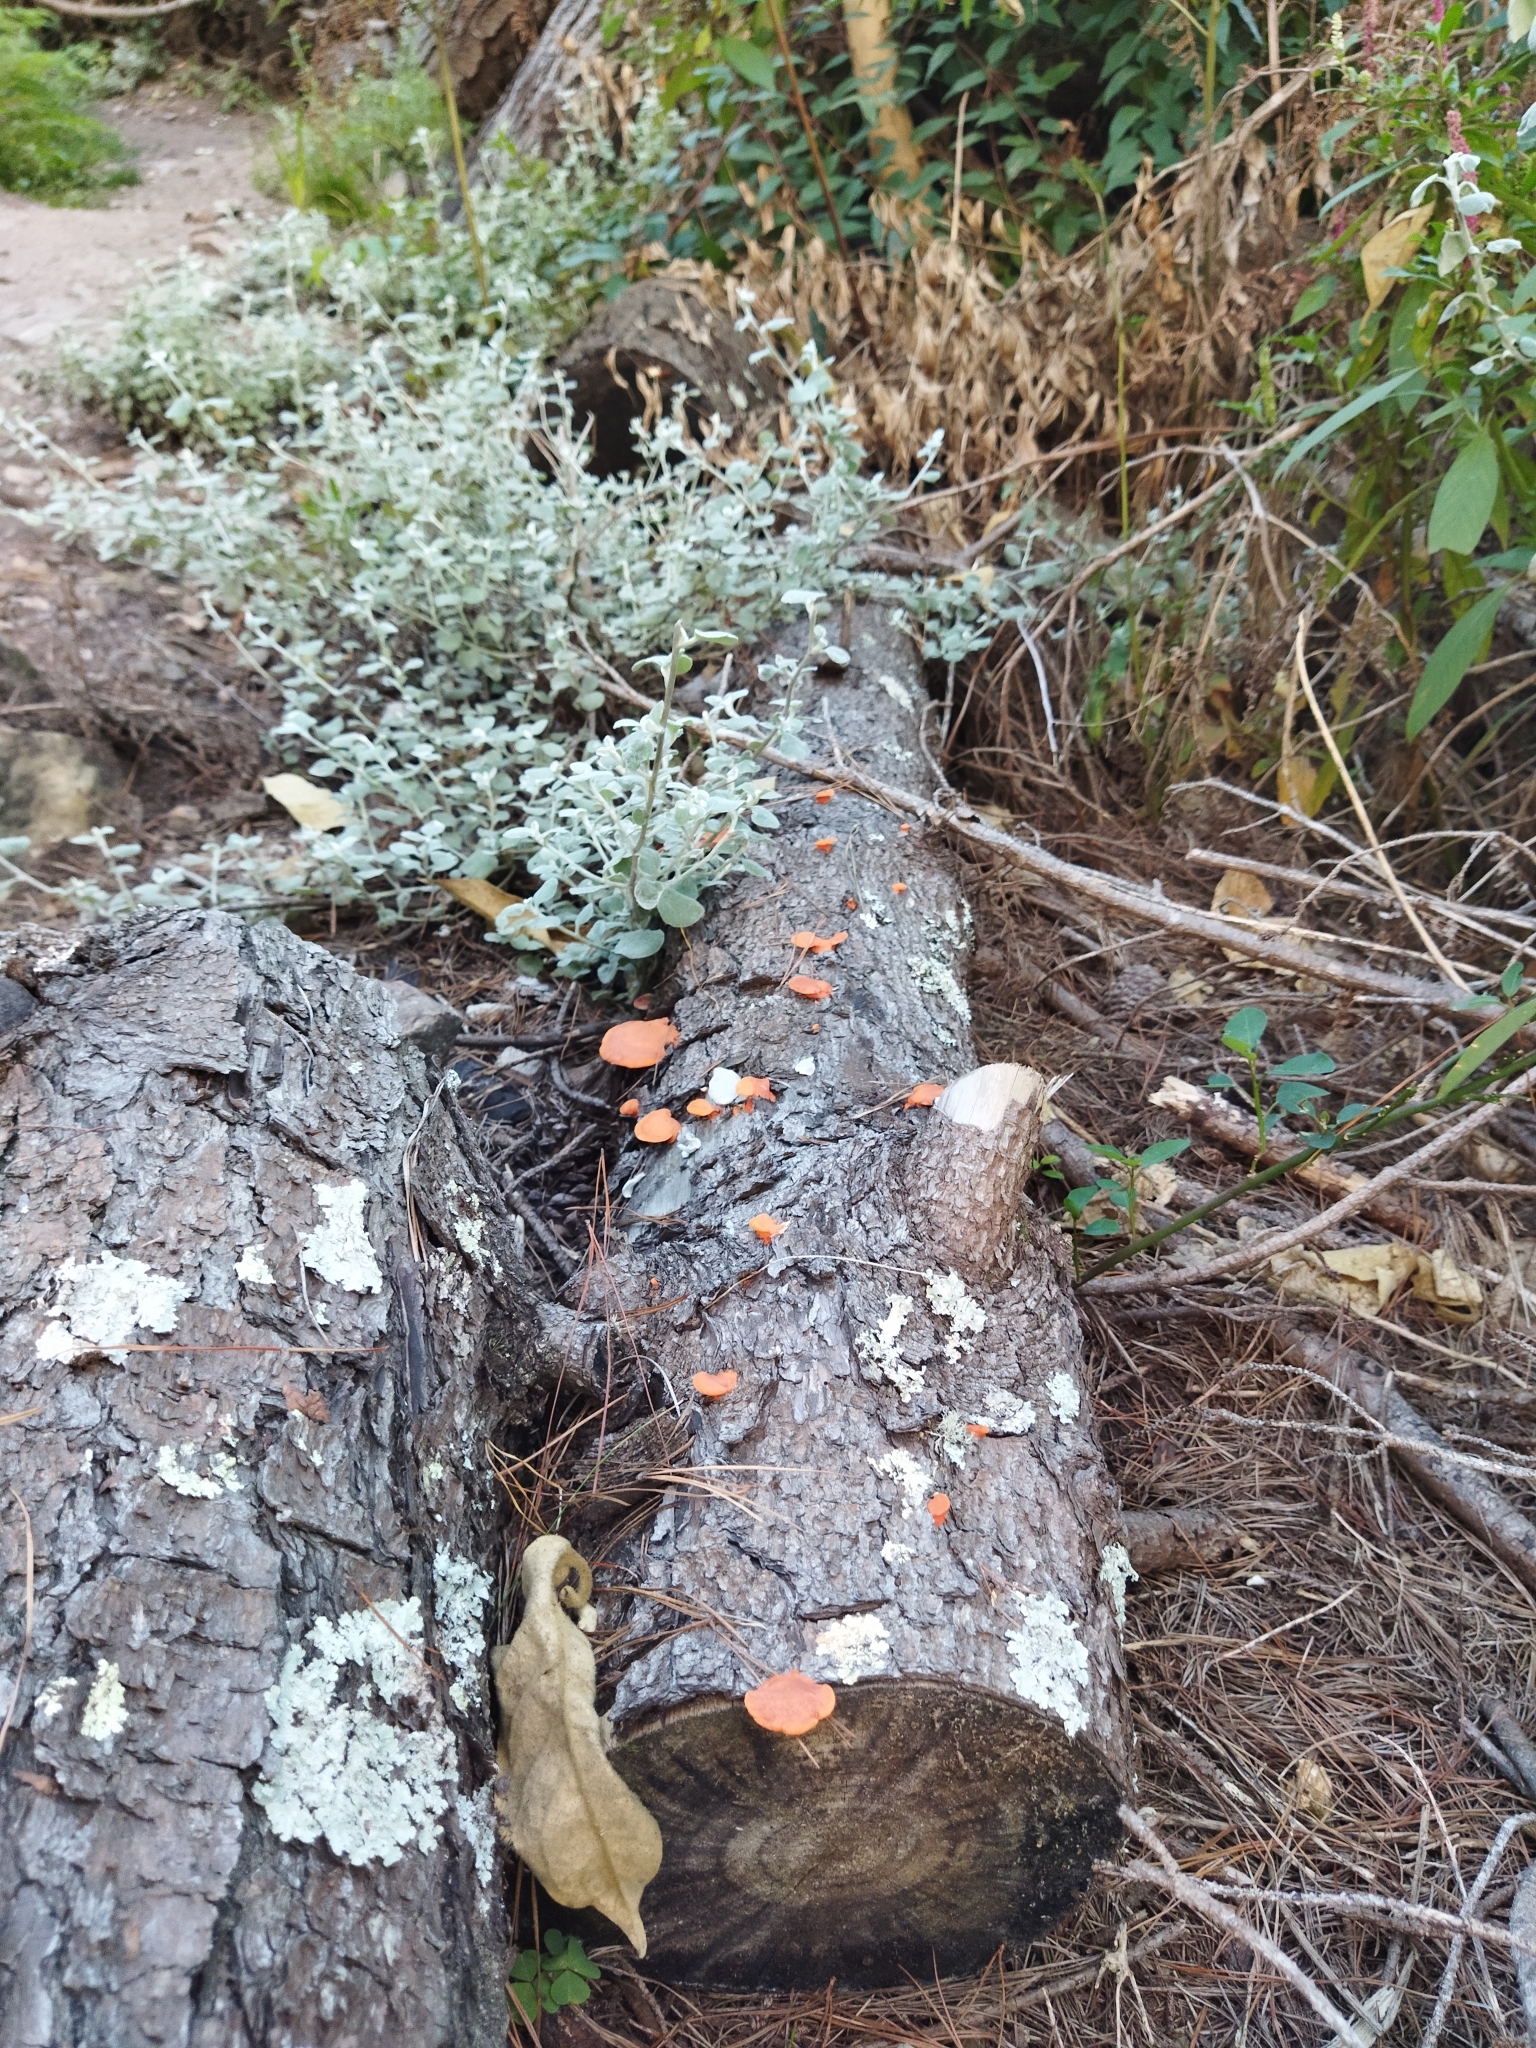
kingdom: Fungi
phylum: Basidiomycota
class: Agaricomycetes
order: Polyporales
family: Polyporaceae
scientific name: Polyporaceae
